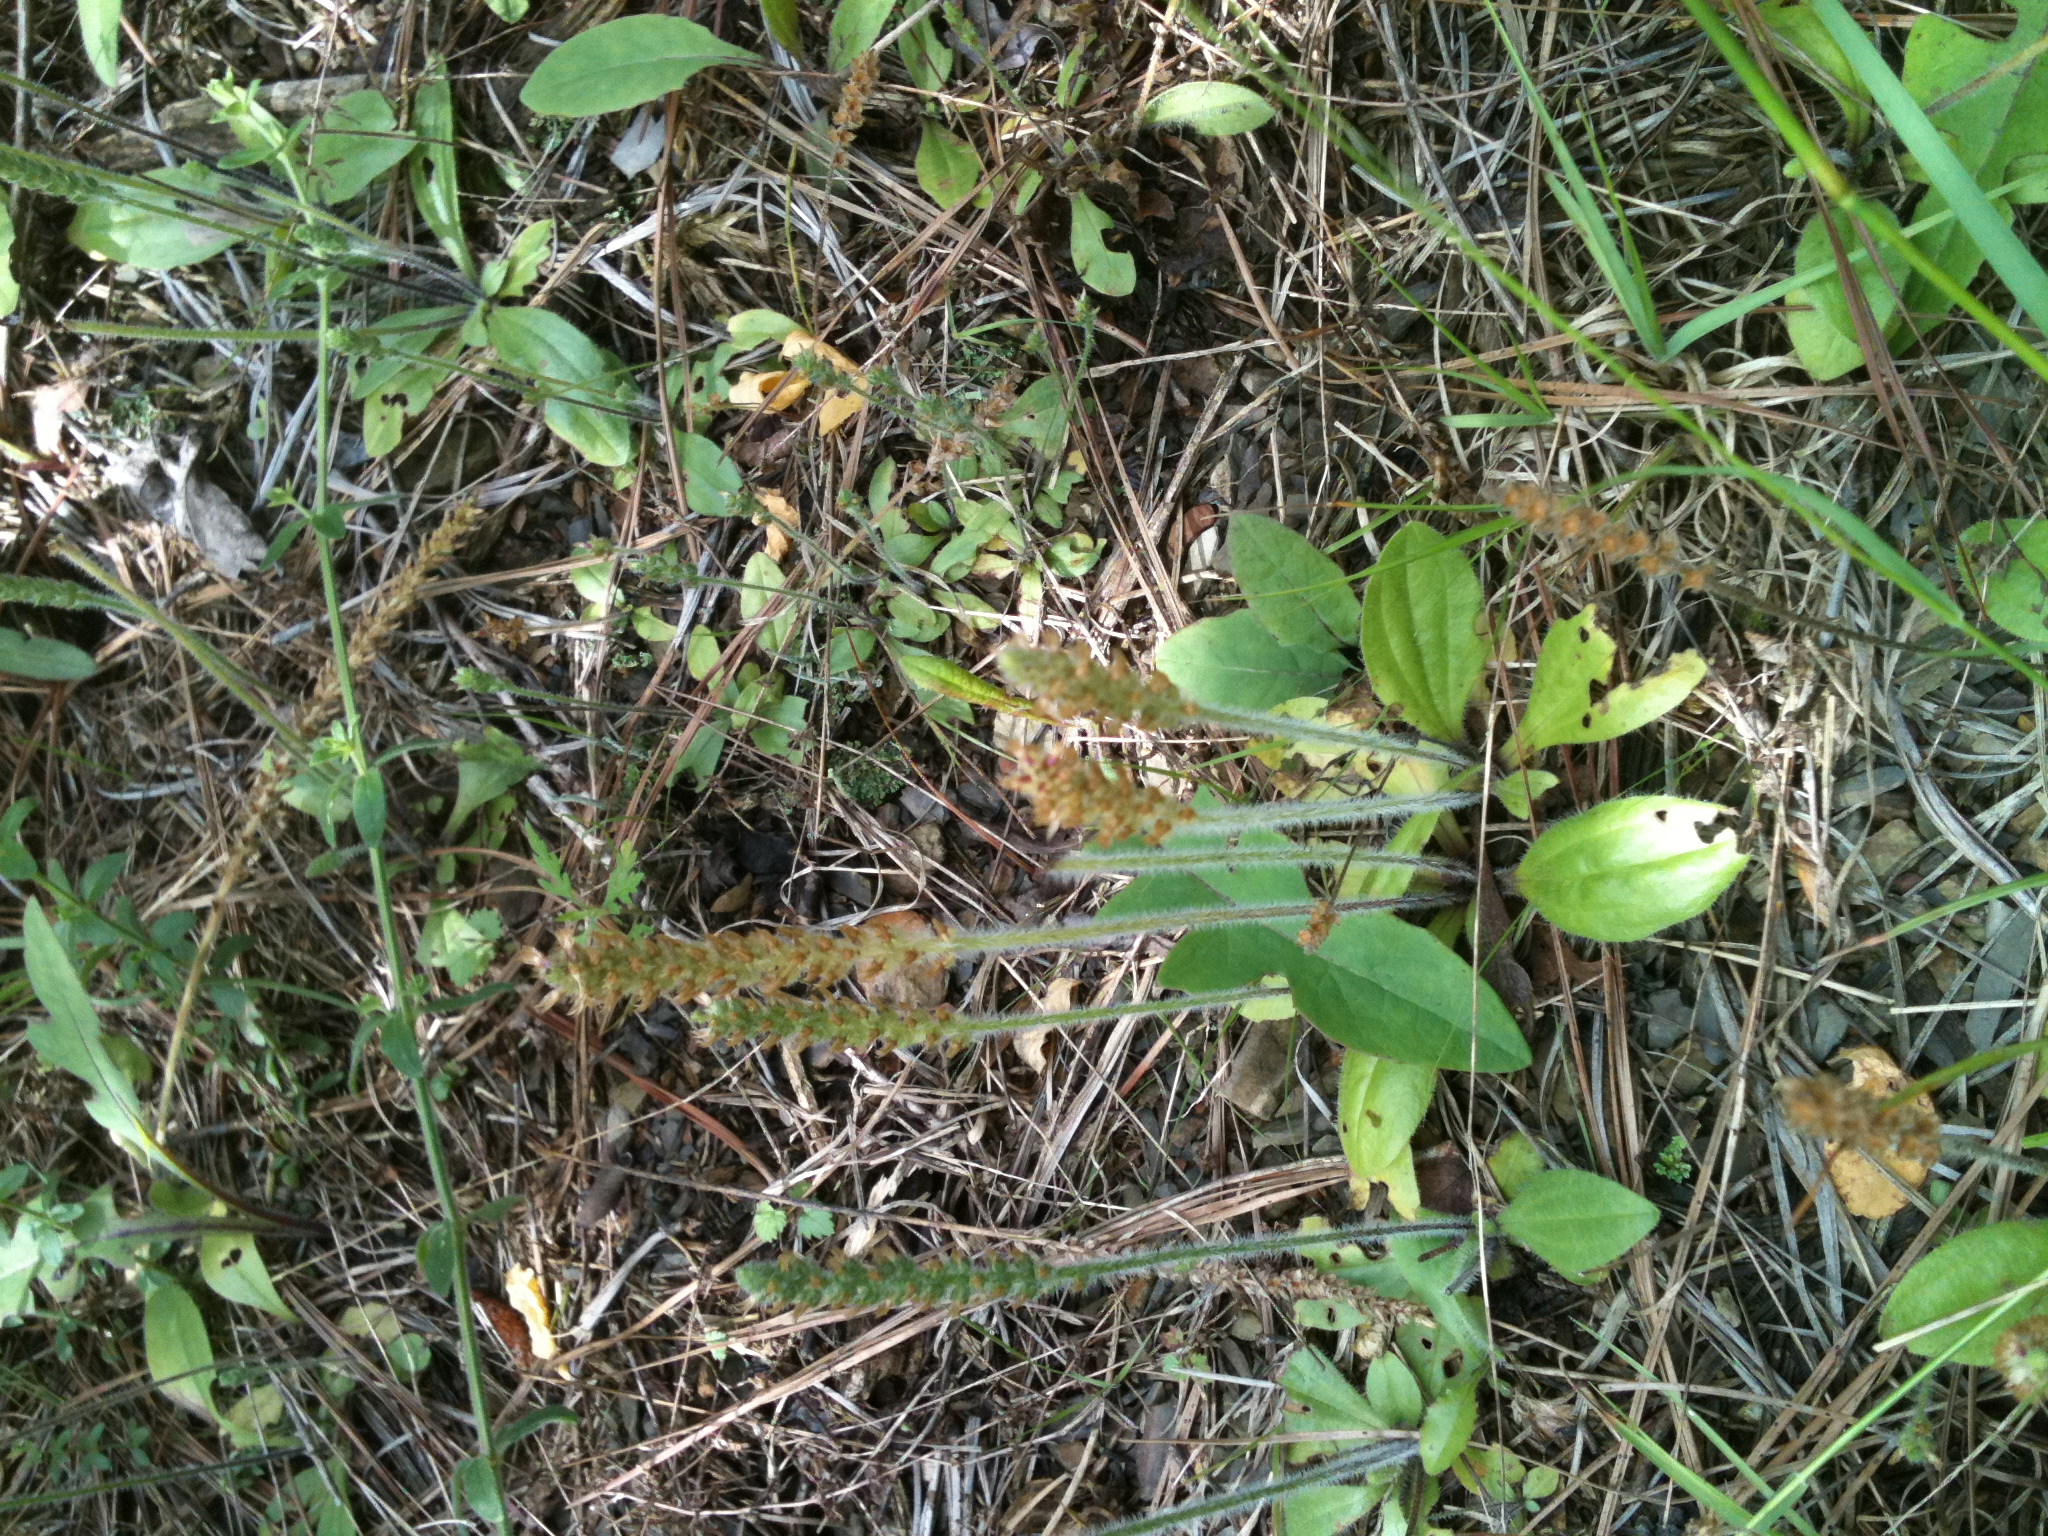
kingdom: Plantae
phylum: Tracheophyta
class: Magnoliopsida
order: Lamiales
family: Plantaginaceae
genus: Plantago
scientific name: Plantago virginica
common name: Hoary plantain
